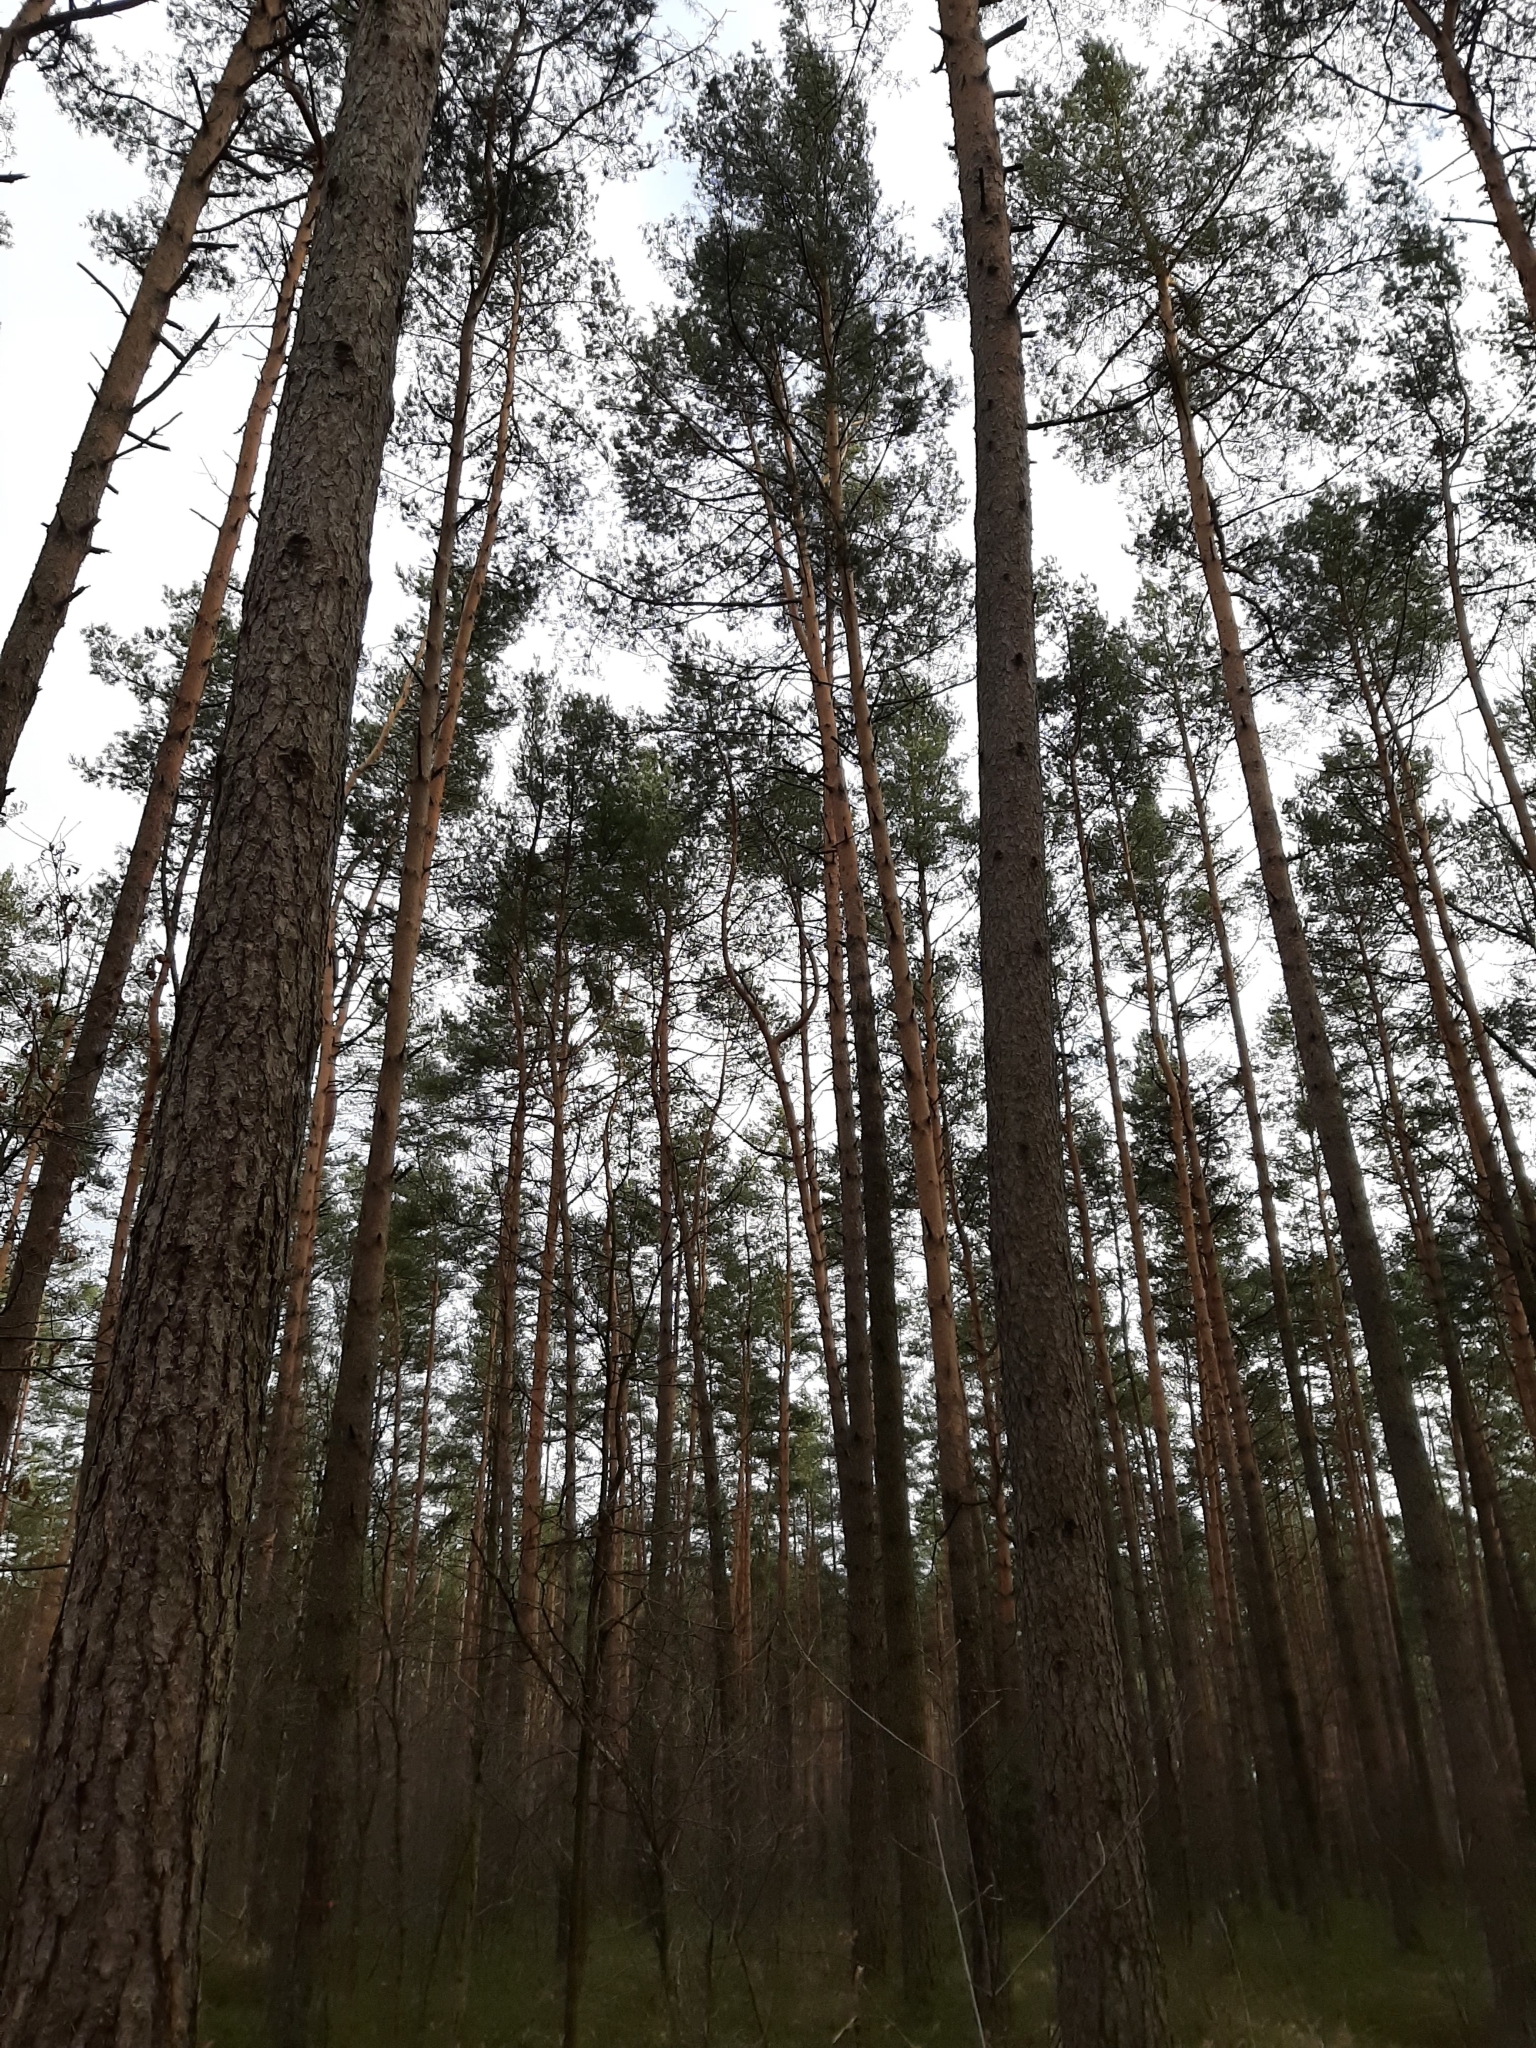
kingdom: Plantae
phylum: Tracheophyta
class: Pinopsida
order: Pinales
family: Pinaceae
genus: Pinus
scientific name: Pinus sylvestris
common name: Scots pine
